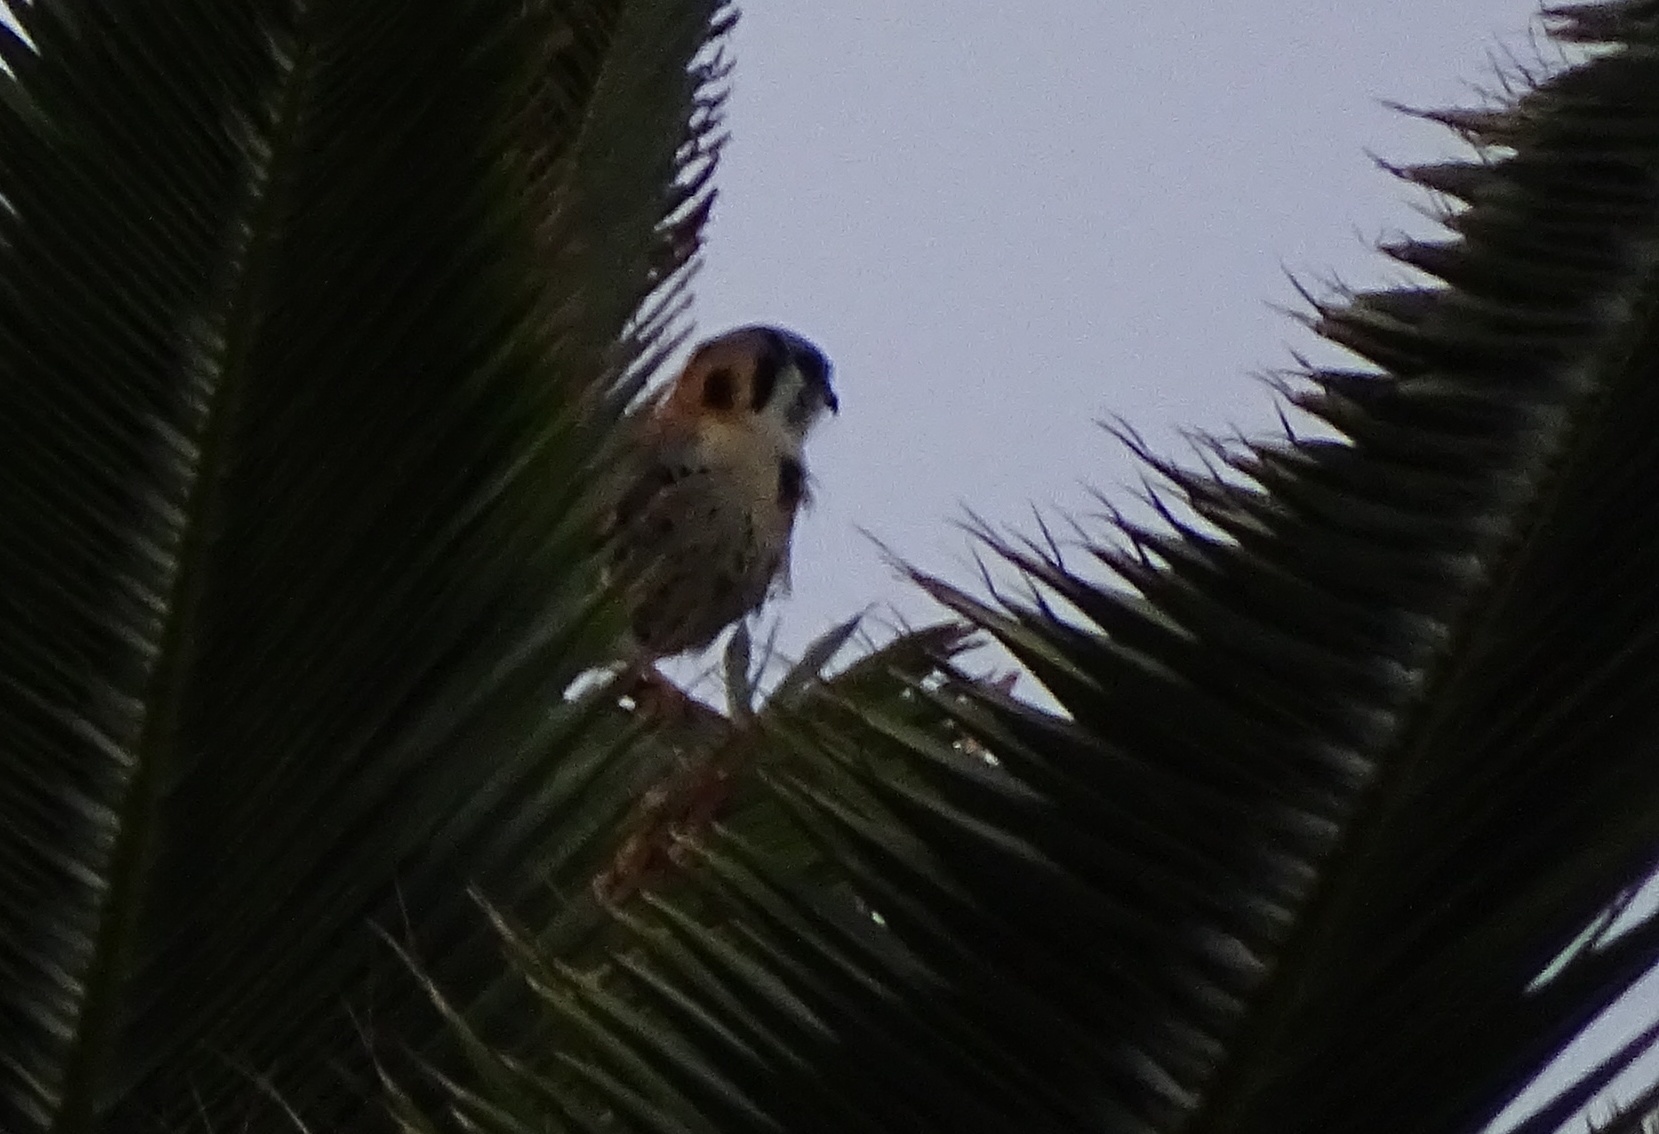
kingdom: Animalia
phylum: Chordata
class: Aves
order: Falconiformes
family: Falconidae
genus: Falco
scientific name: Falco sparverius
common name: American kestrel
